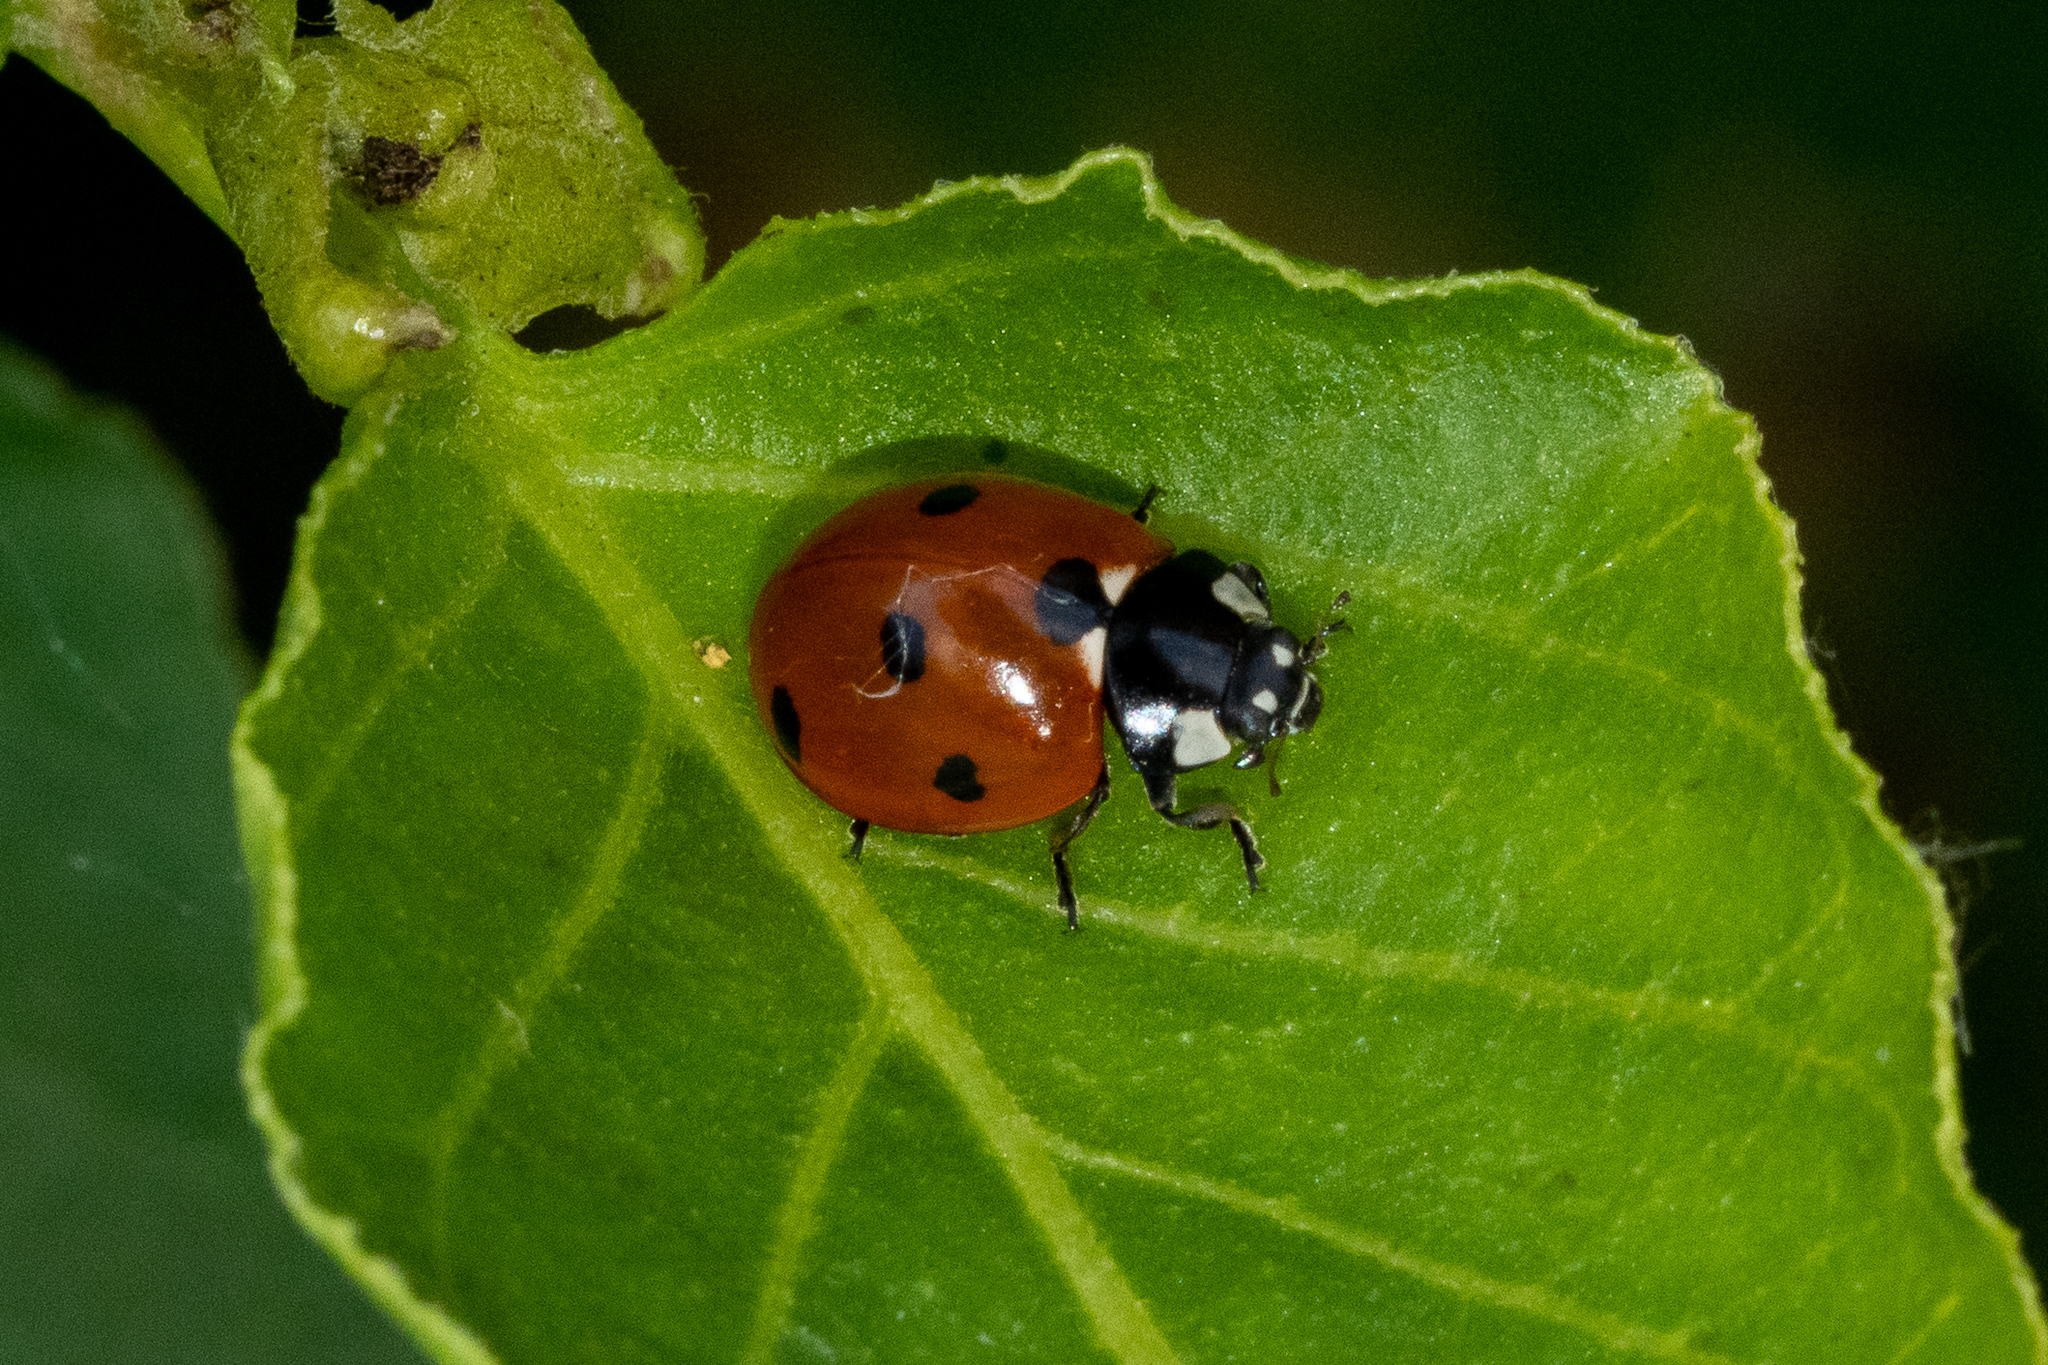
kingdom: Animalia
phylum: Arthropoda
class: Insecta
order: Coleoptera
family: Coccinellidae
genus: Coccinella
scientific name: Coccinella septempunctata
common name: Sevenspotted lady beetle
